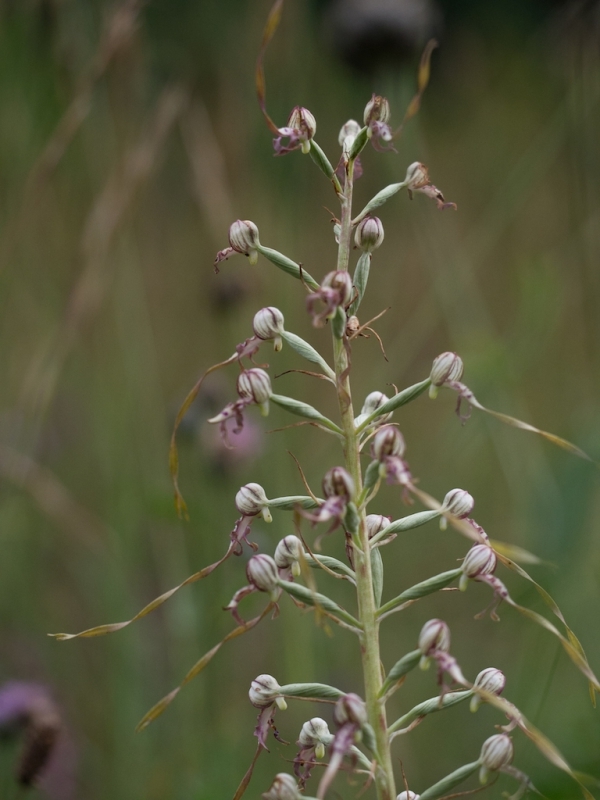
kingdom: Plantae
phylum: Tracheophyta
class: Liliopsida
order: Asparagales
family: Orchidaceae
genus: Himantoglossum
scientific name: Himantoglossum adriaticum
